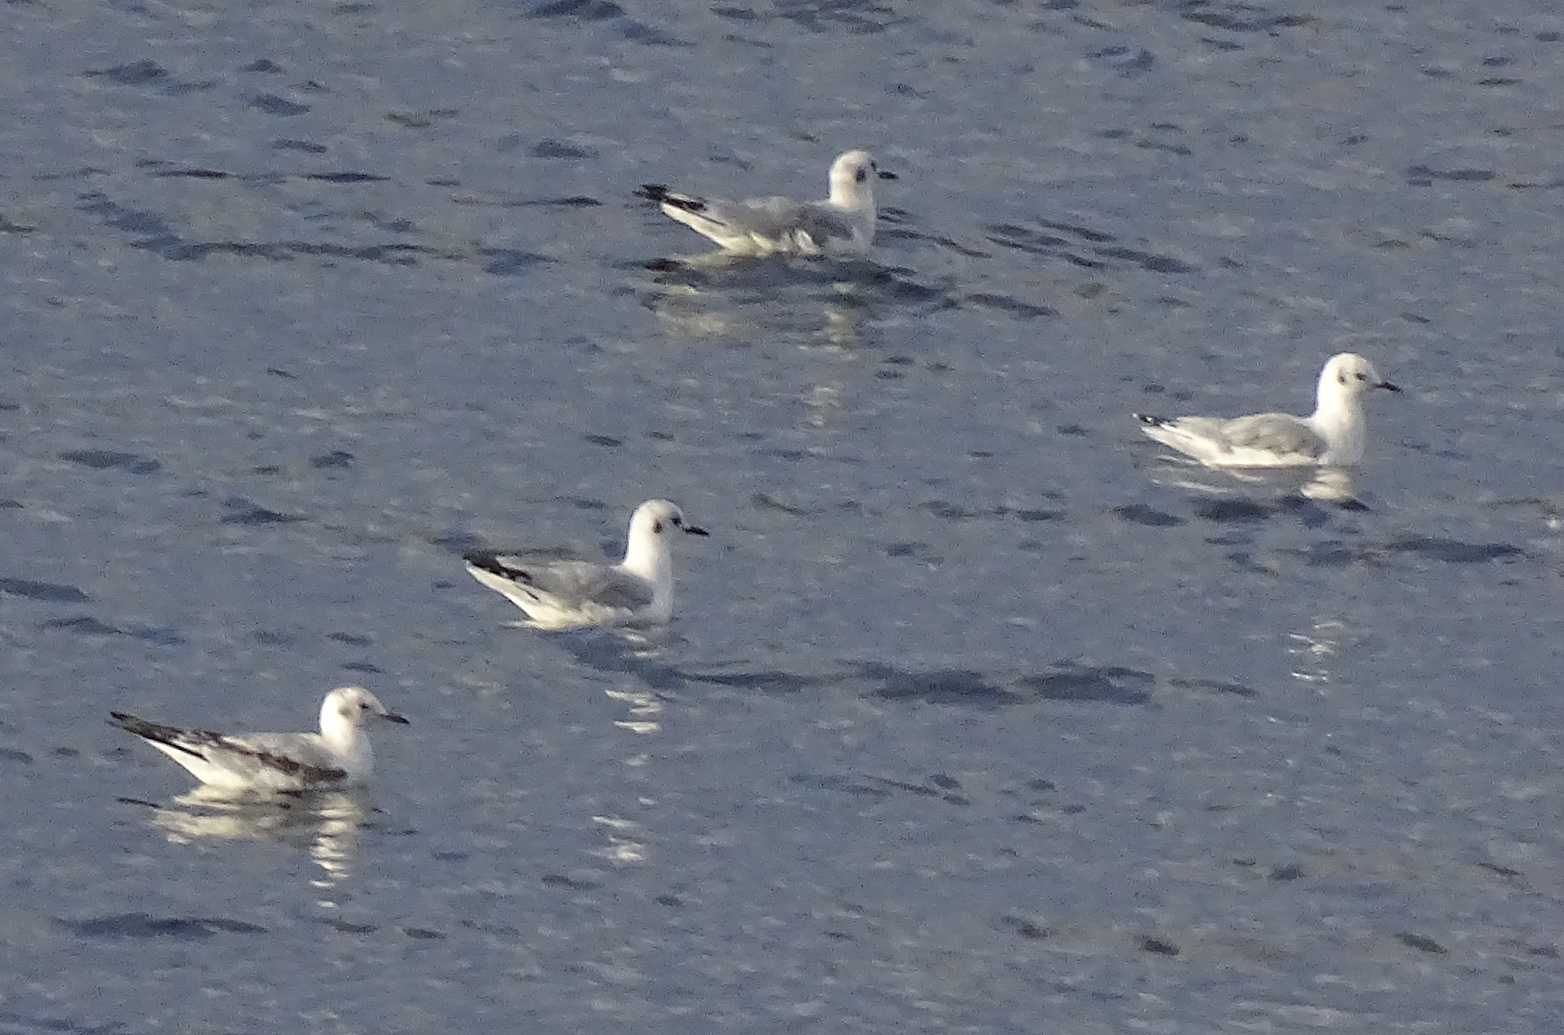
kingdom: Animalia
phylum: Chordata
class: Aves
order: Charadriiformes
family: Laridae
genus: Chroicocephalus
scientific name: Chroicocephalus philadelphia
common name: Bonaparte's gull
